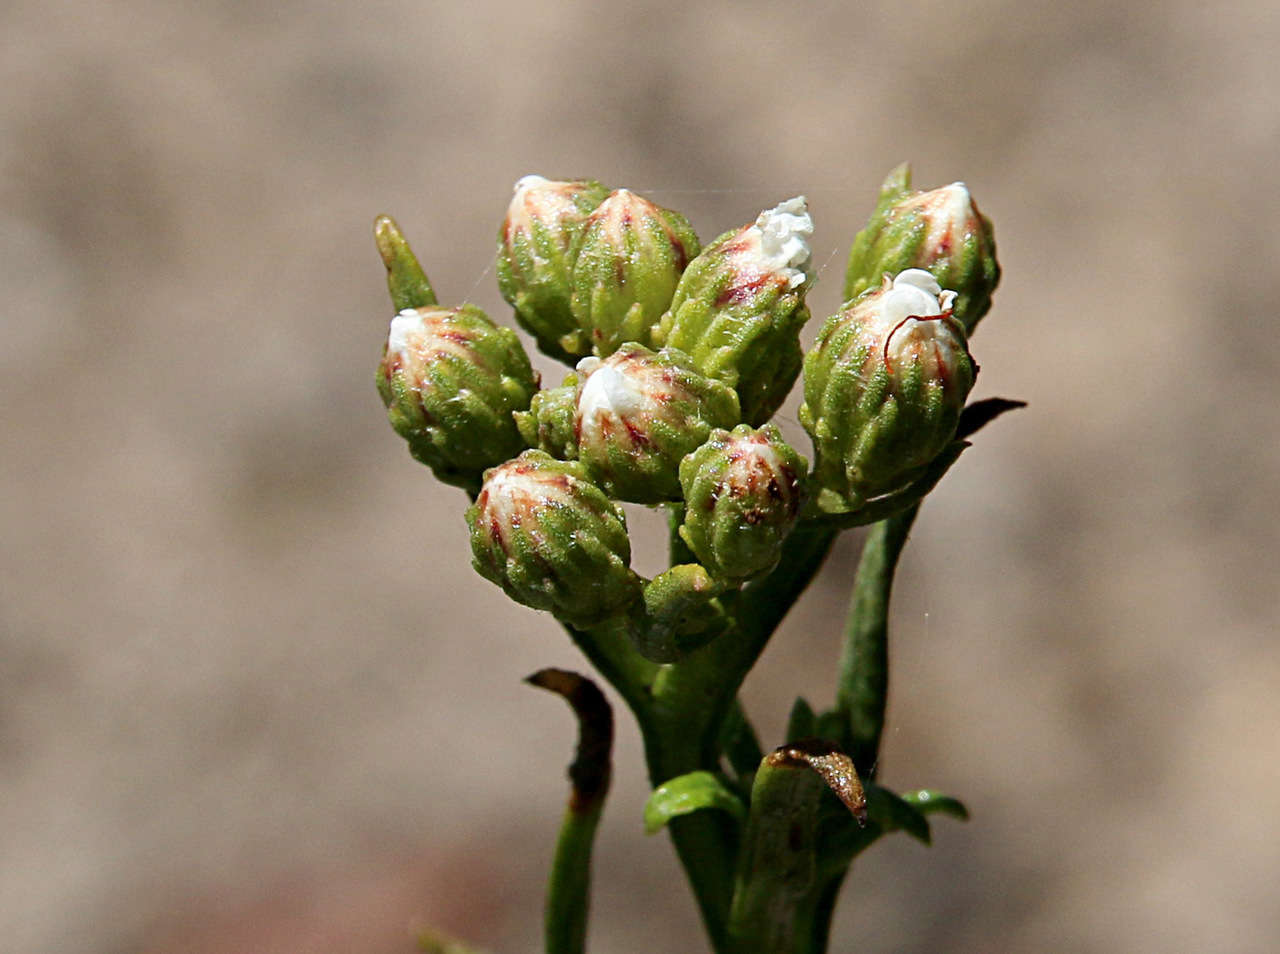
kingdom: Plantae
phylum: Tracheophyta
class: Magnoliopsida
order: Asterales
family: Asteraceae
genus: Ixodia
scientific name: Ixodia achillaeoides
